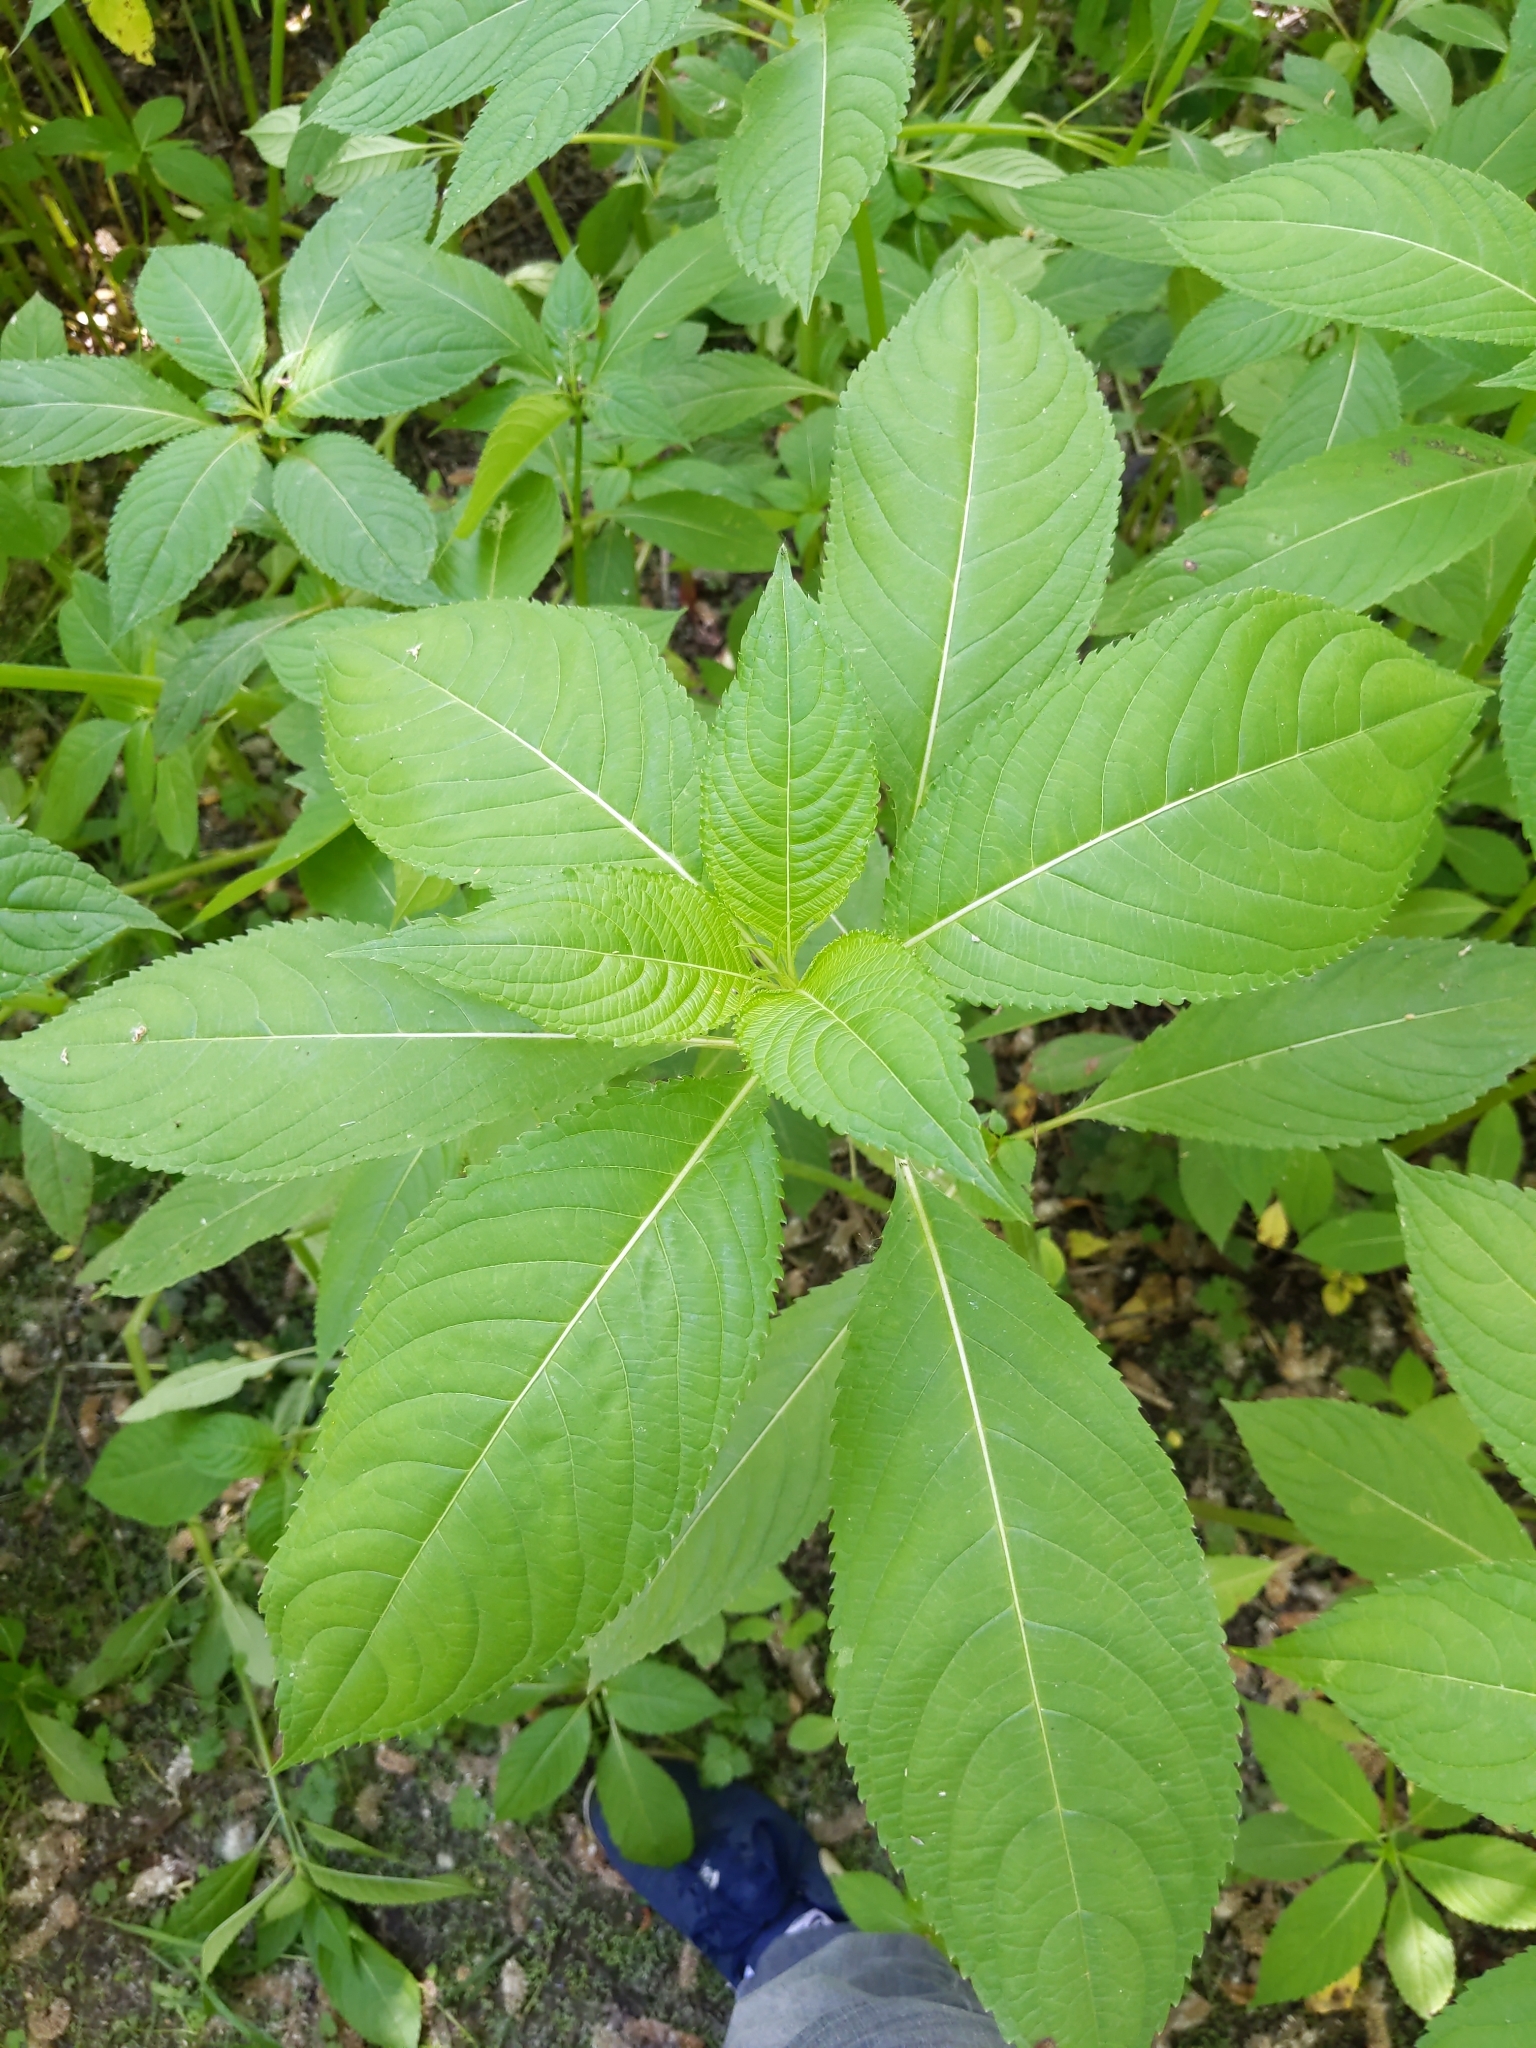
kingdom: Plantae
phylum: Tracheophyta
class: Magnoliopsida
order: Ericales
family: Balsaminaceae
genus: Impatiens
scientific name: Impatiens glandulifera
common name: Himalayan balsam
